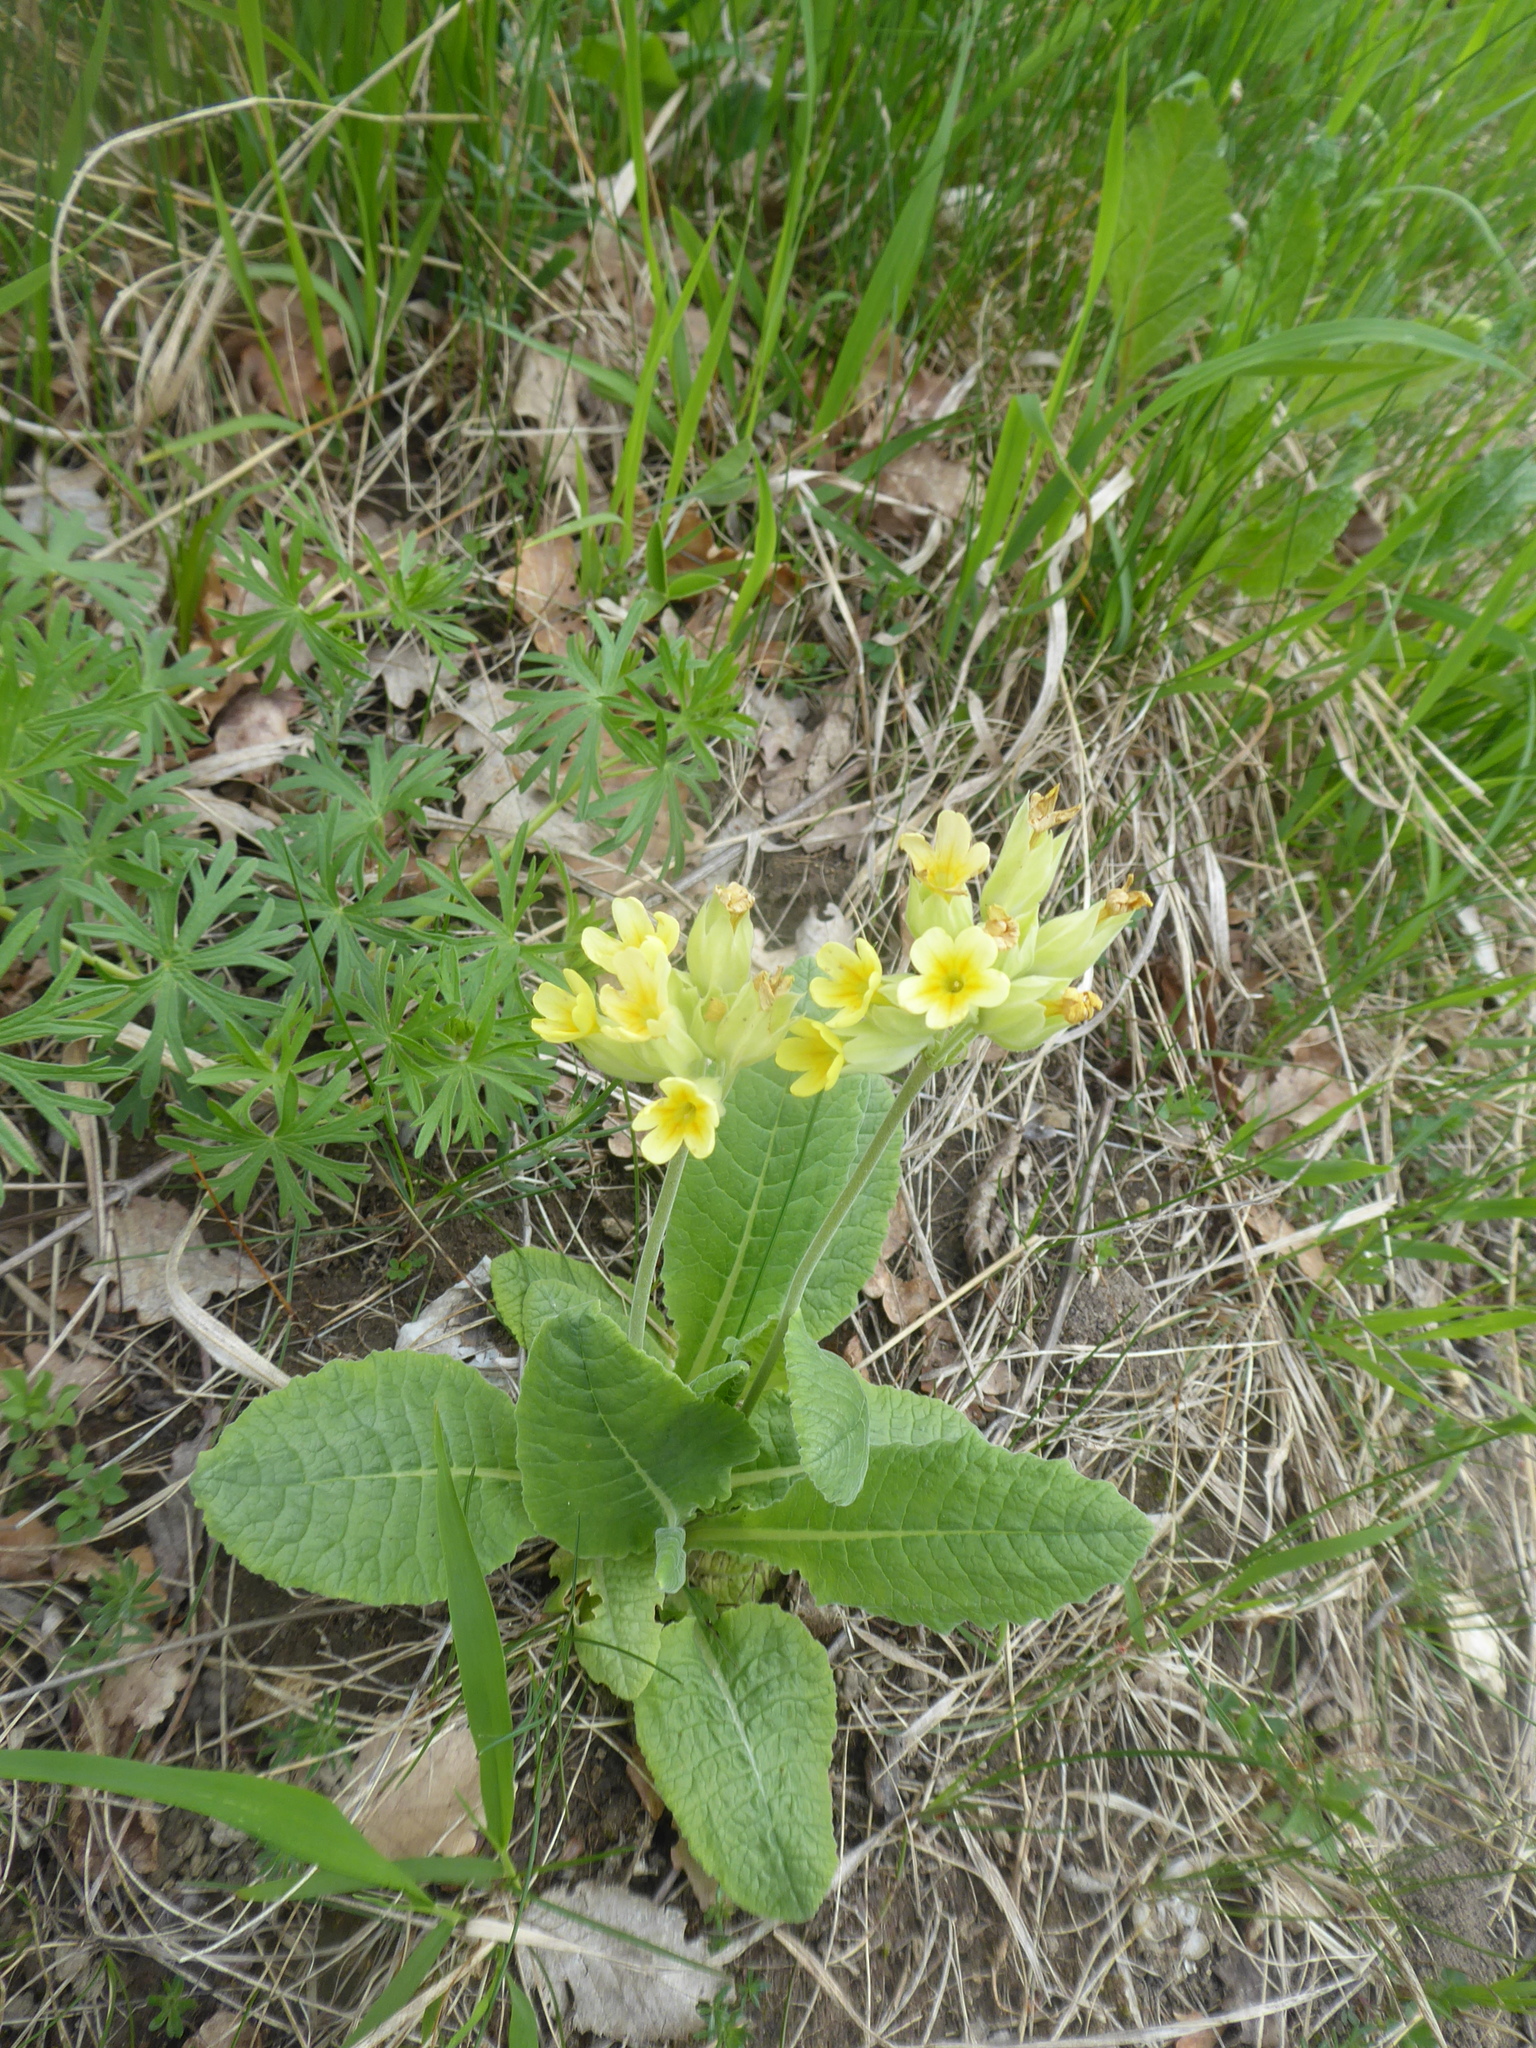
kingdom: Plantae
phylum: Tracheophyta
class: Magnoliopsida
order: Ericales
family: Primulaceae
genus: Primula
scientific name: Primula veris
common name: Cowslip
